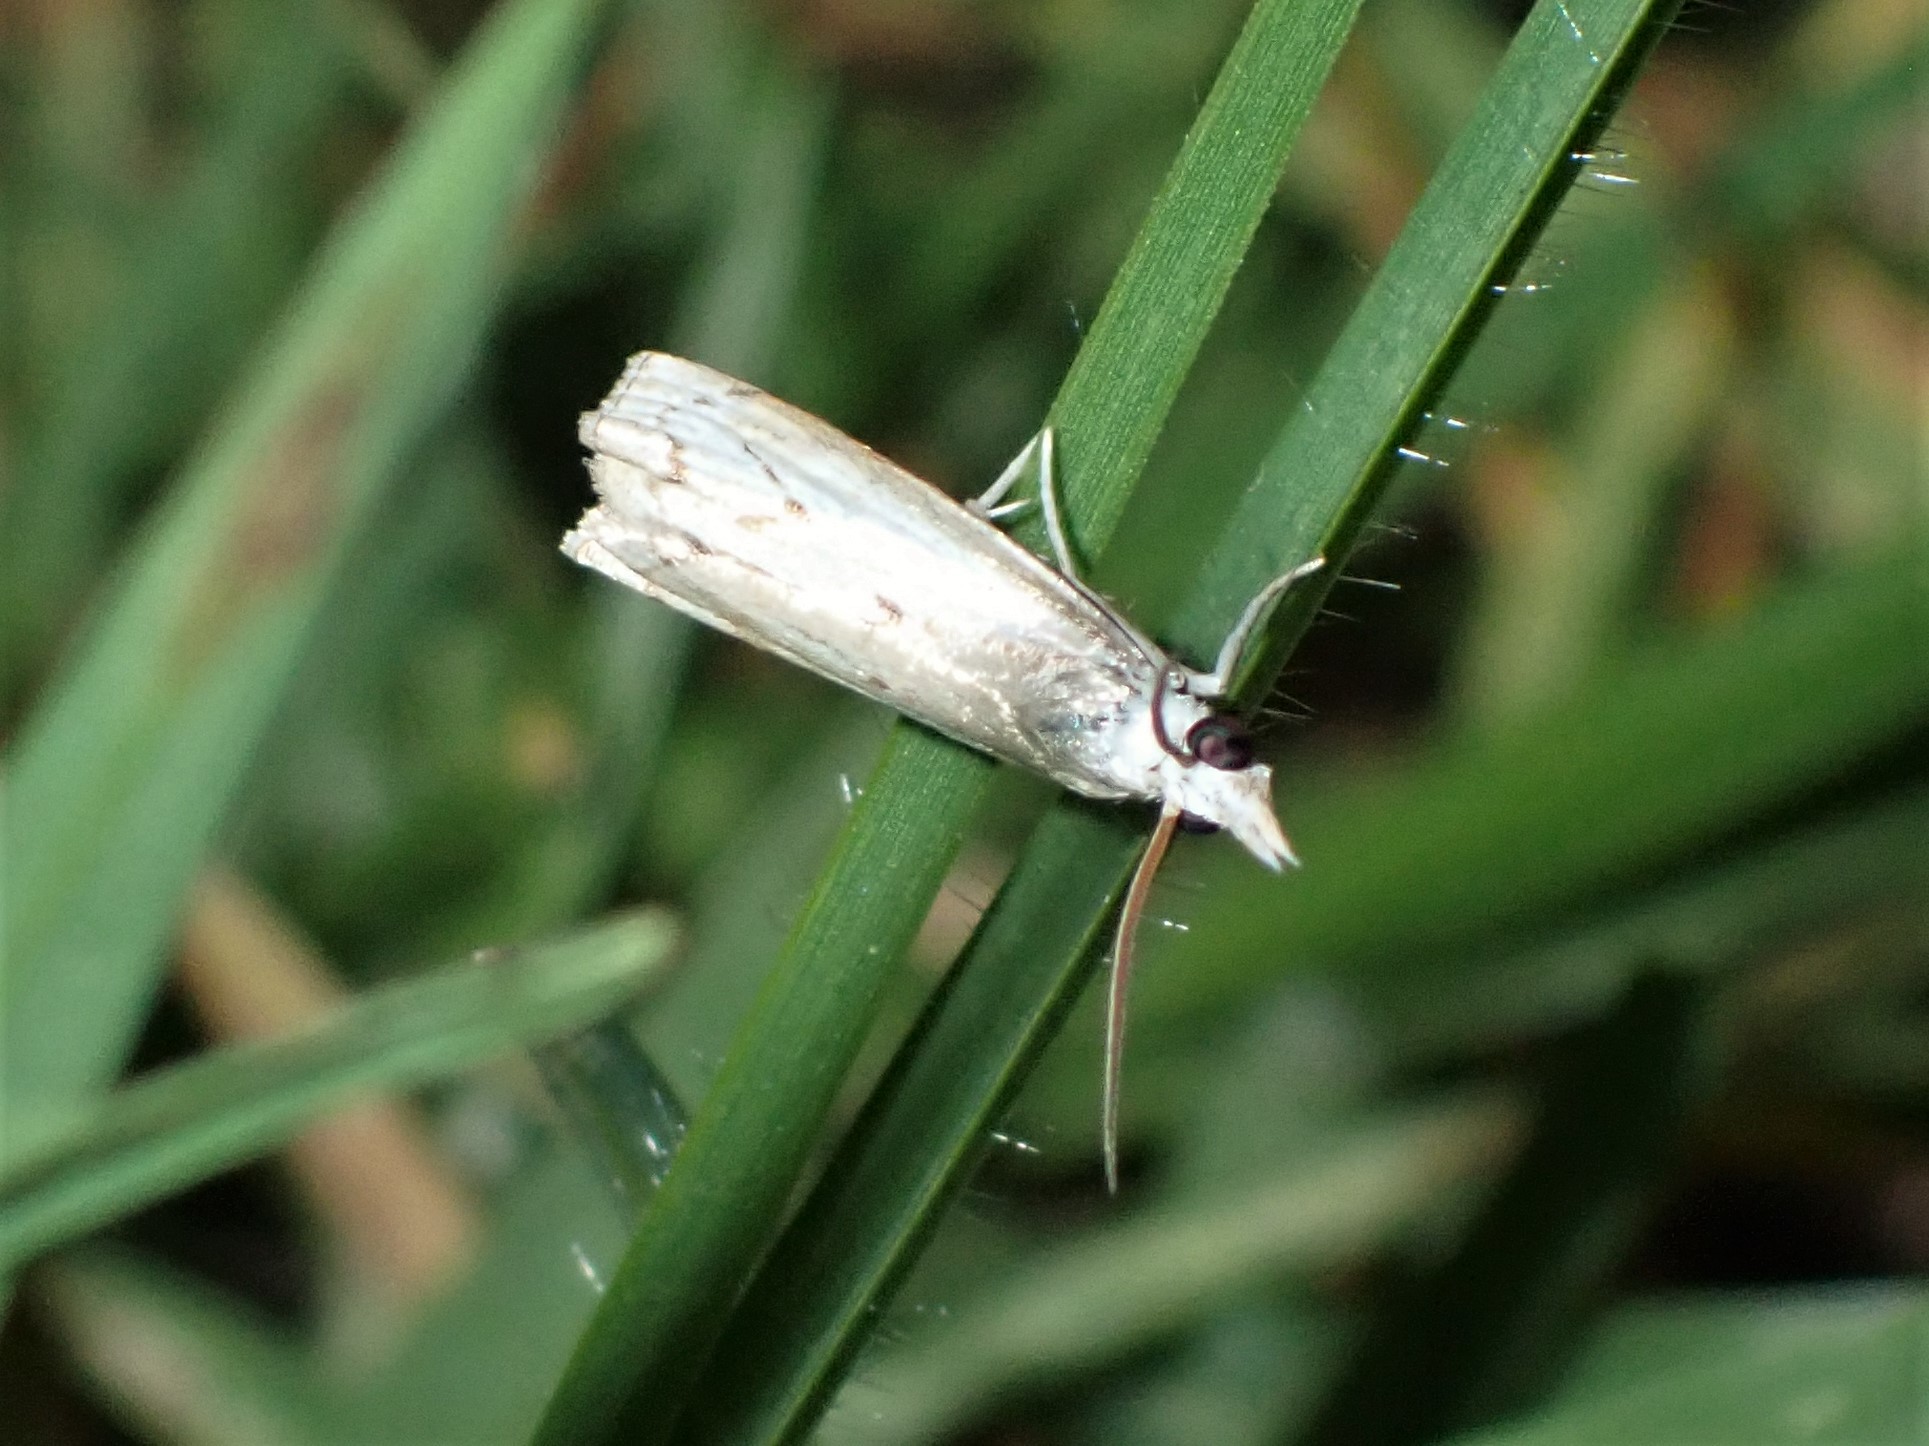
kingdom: Animalia
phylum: Arthropoda
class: Insecta
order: Lepidoptera
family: Crambidae
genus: Culladia
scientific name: Culladia cuneiferellus
